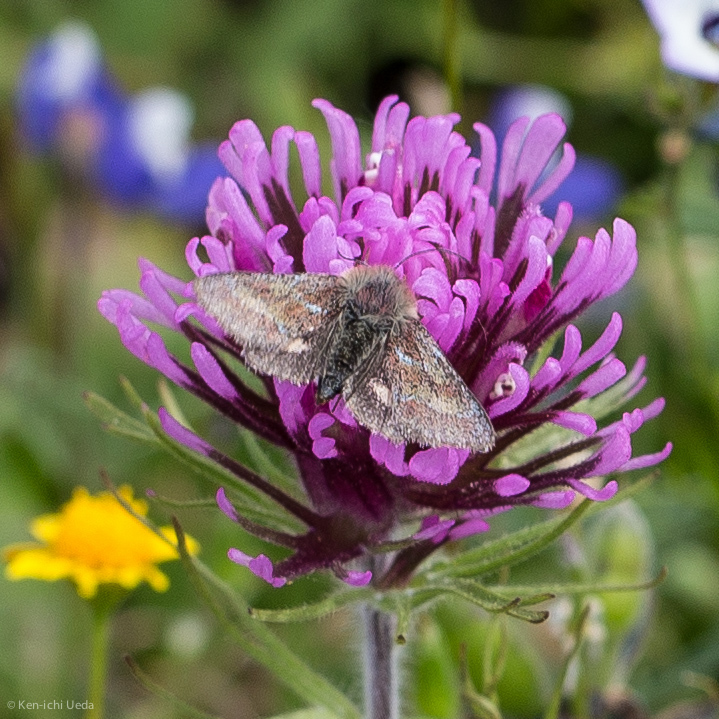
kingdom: Animalia
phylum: Arthropoda
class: Insecta
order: Lepidoptera
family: Noctuidae
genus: Schinia
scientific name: Schinia pulchripennis
